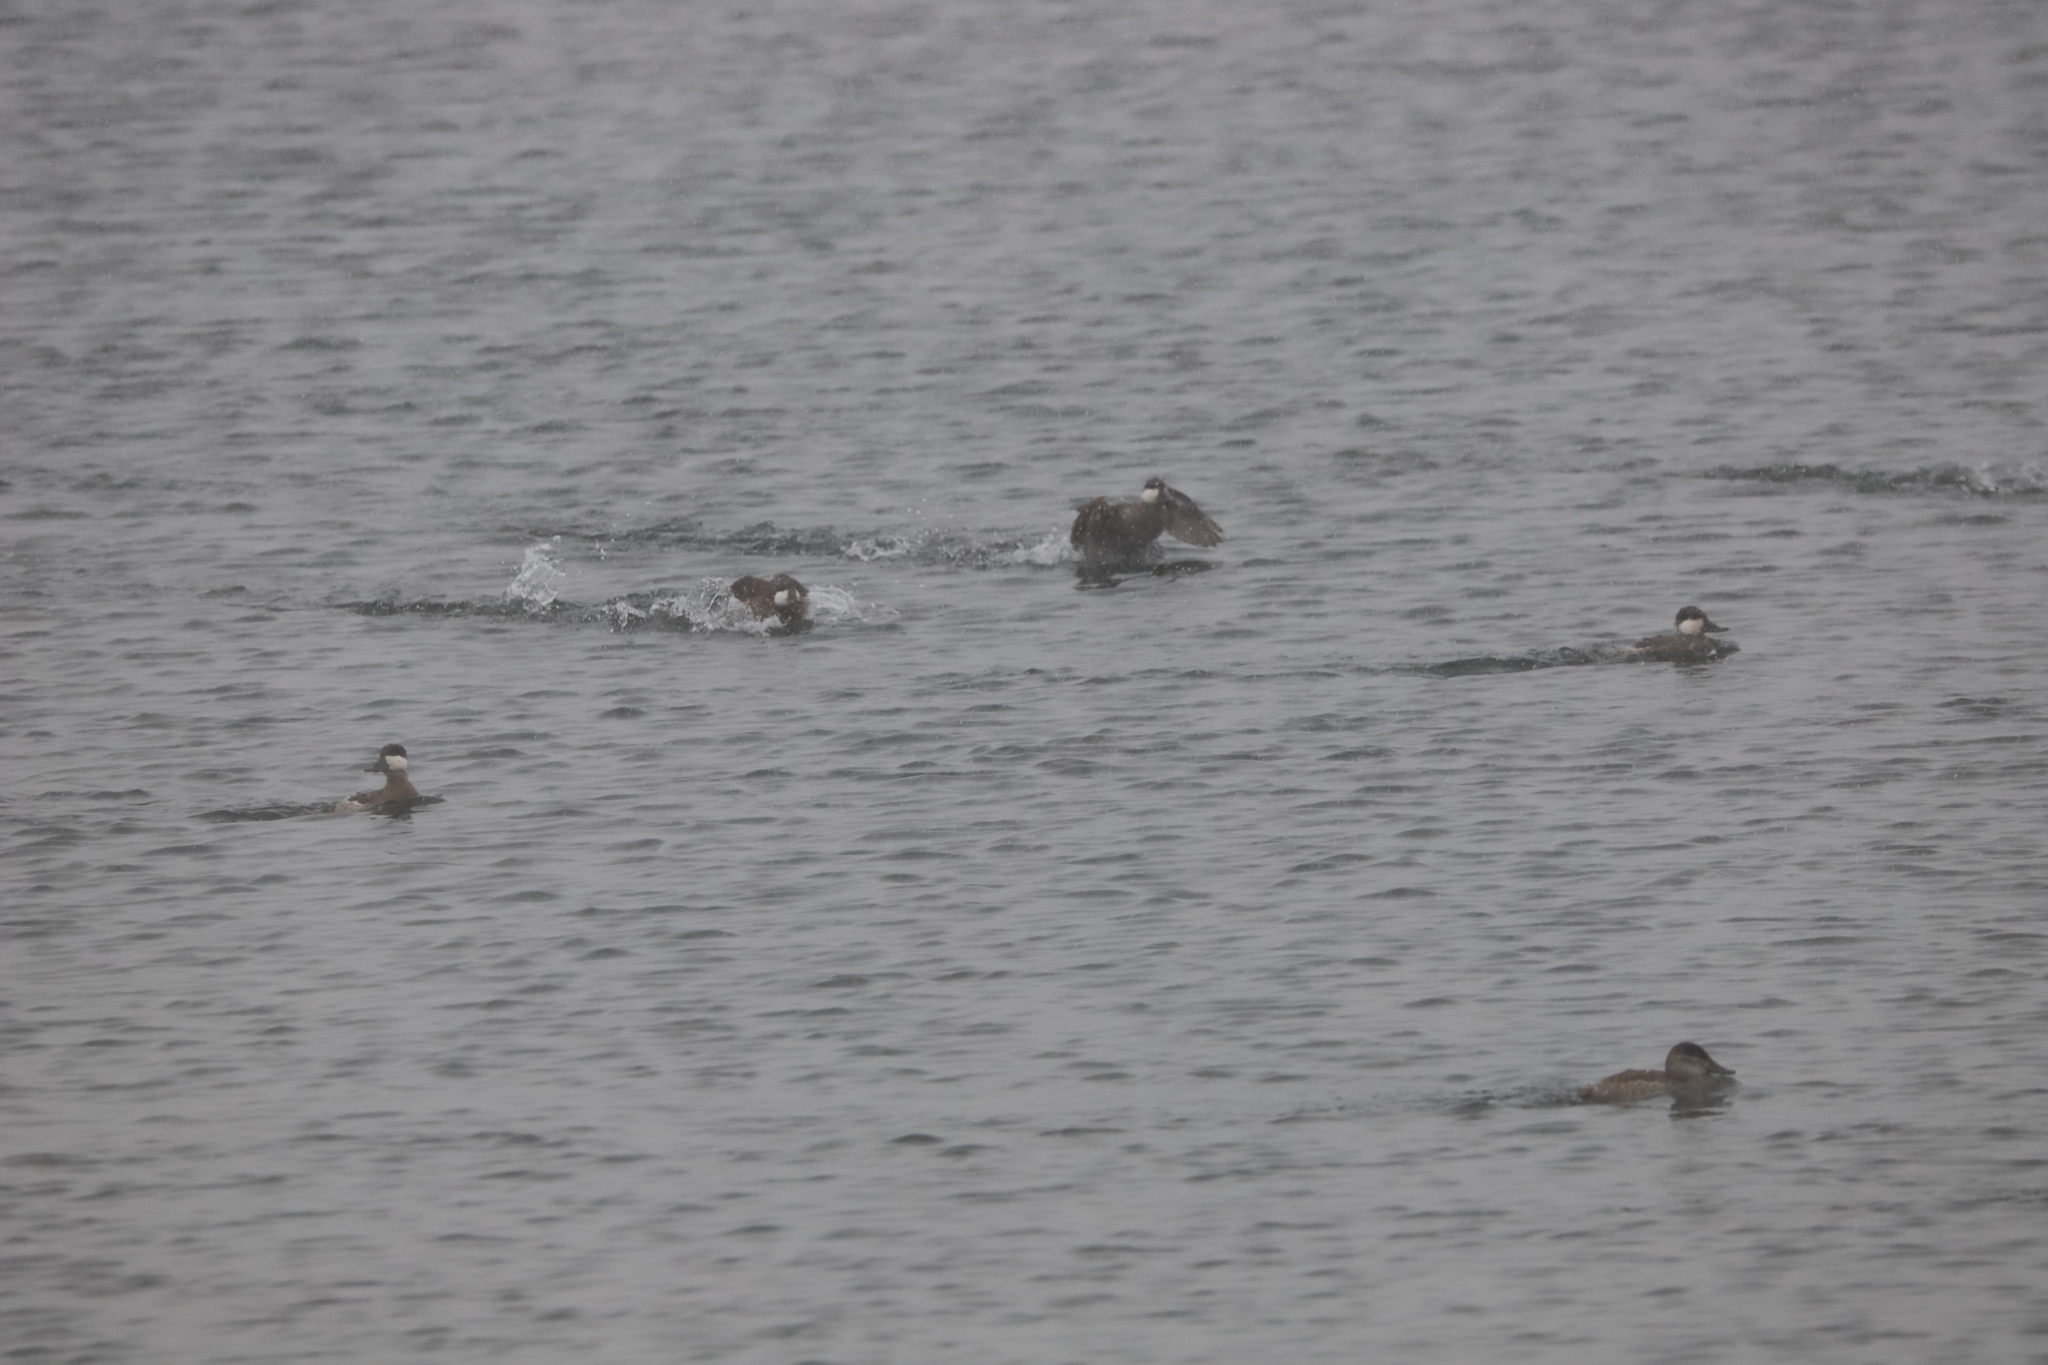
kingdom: Animalia
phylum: Chordata
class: Aves
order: Anseriformes
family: Anatidae
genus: Oxyura
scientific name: Oxyura jamaicensis
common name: Ruddy duck
